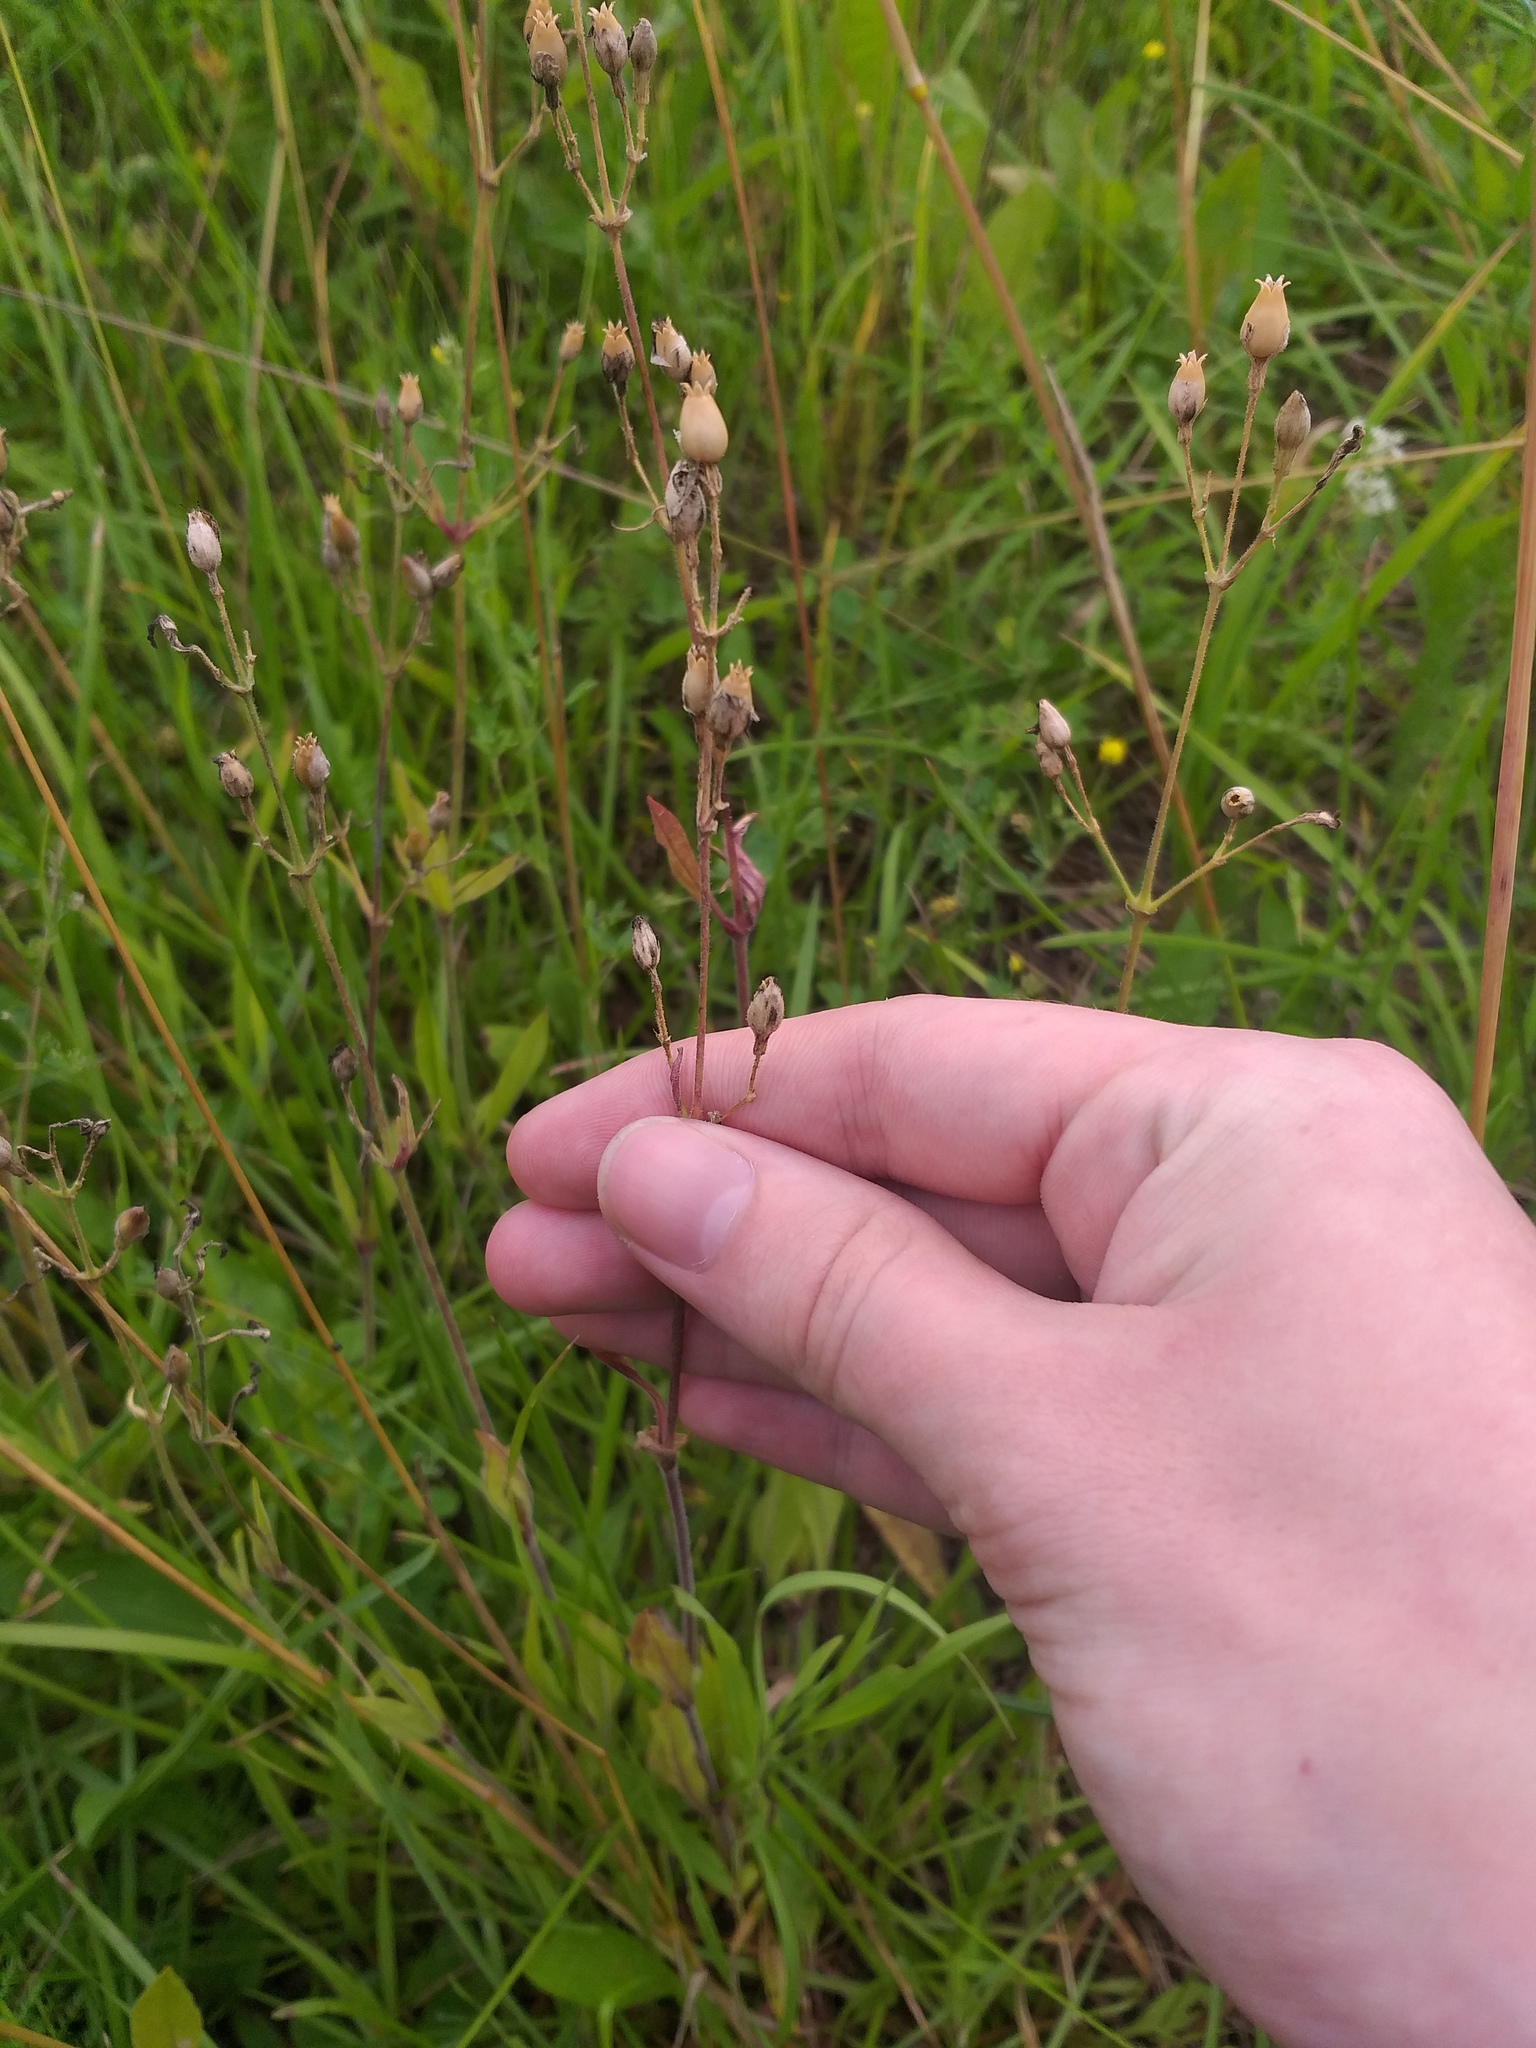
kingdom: Plantae
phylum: Tracheophyta
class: Magnoliopsida
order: Caryophyllales
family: Caryophyllaceae
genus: Silene
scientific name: Silene nutans
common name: Nottingham catchfly
